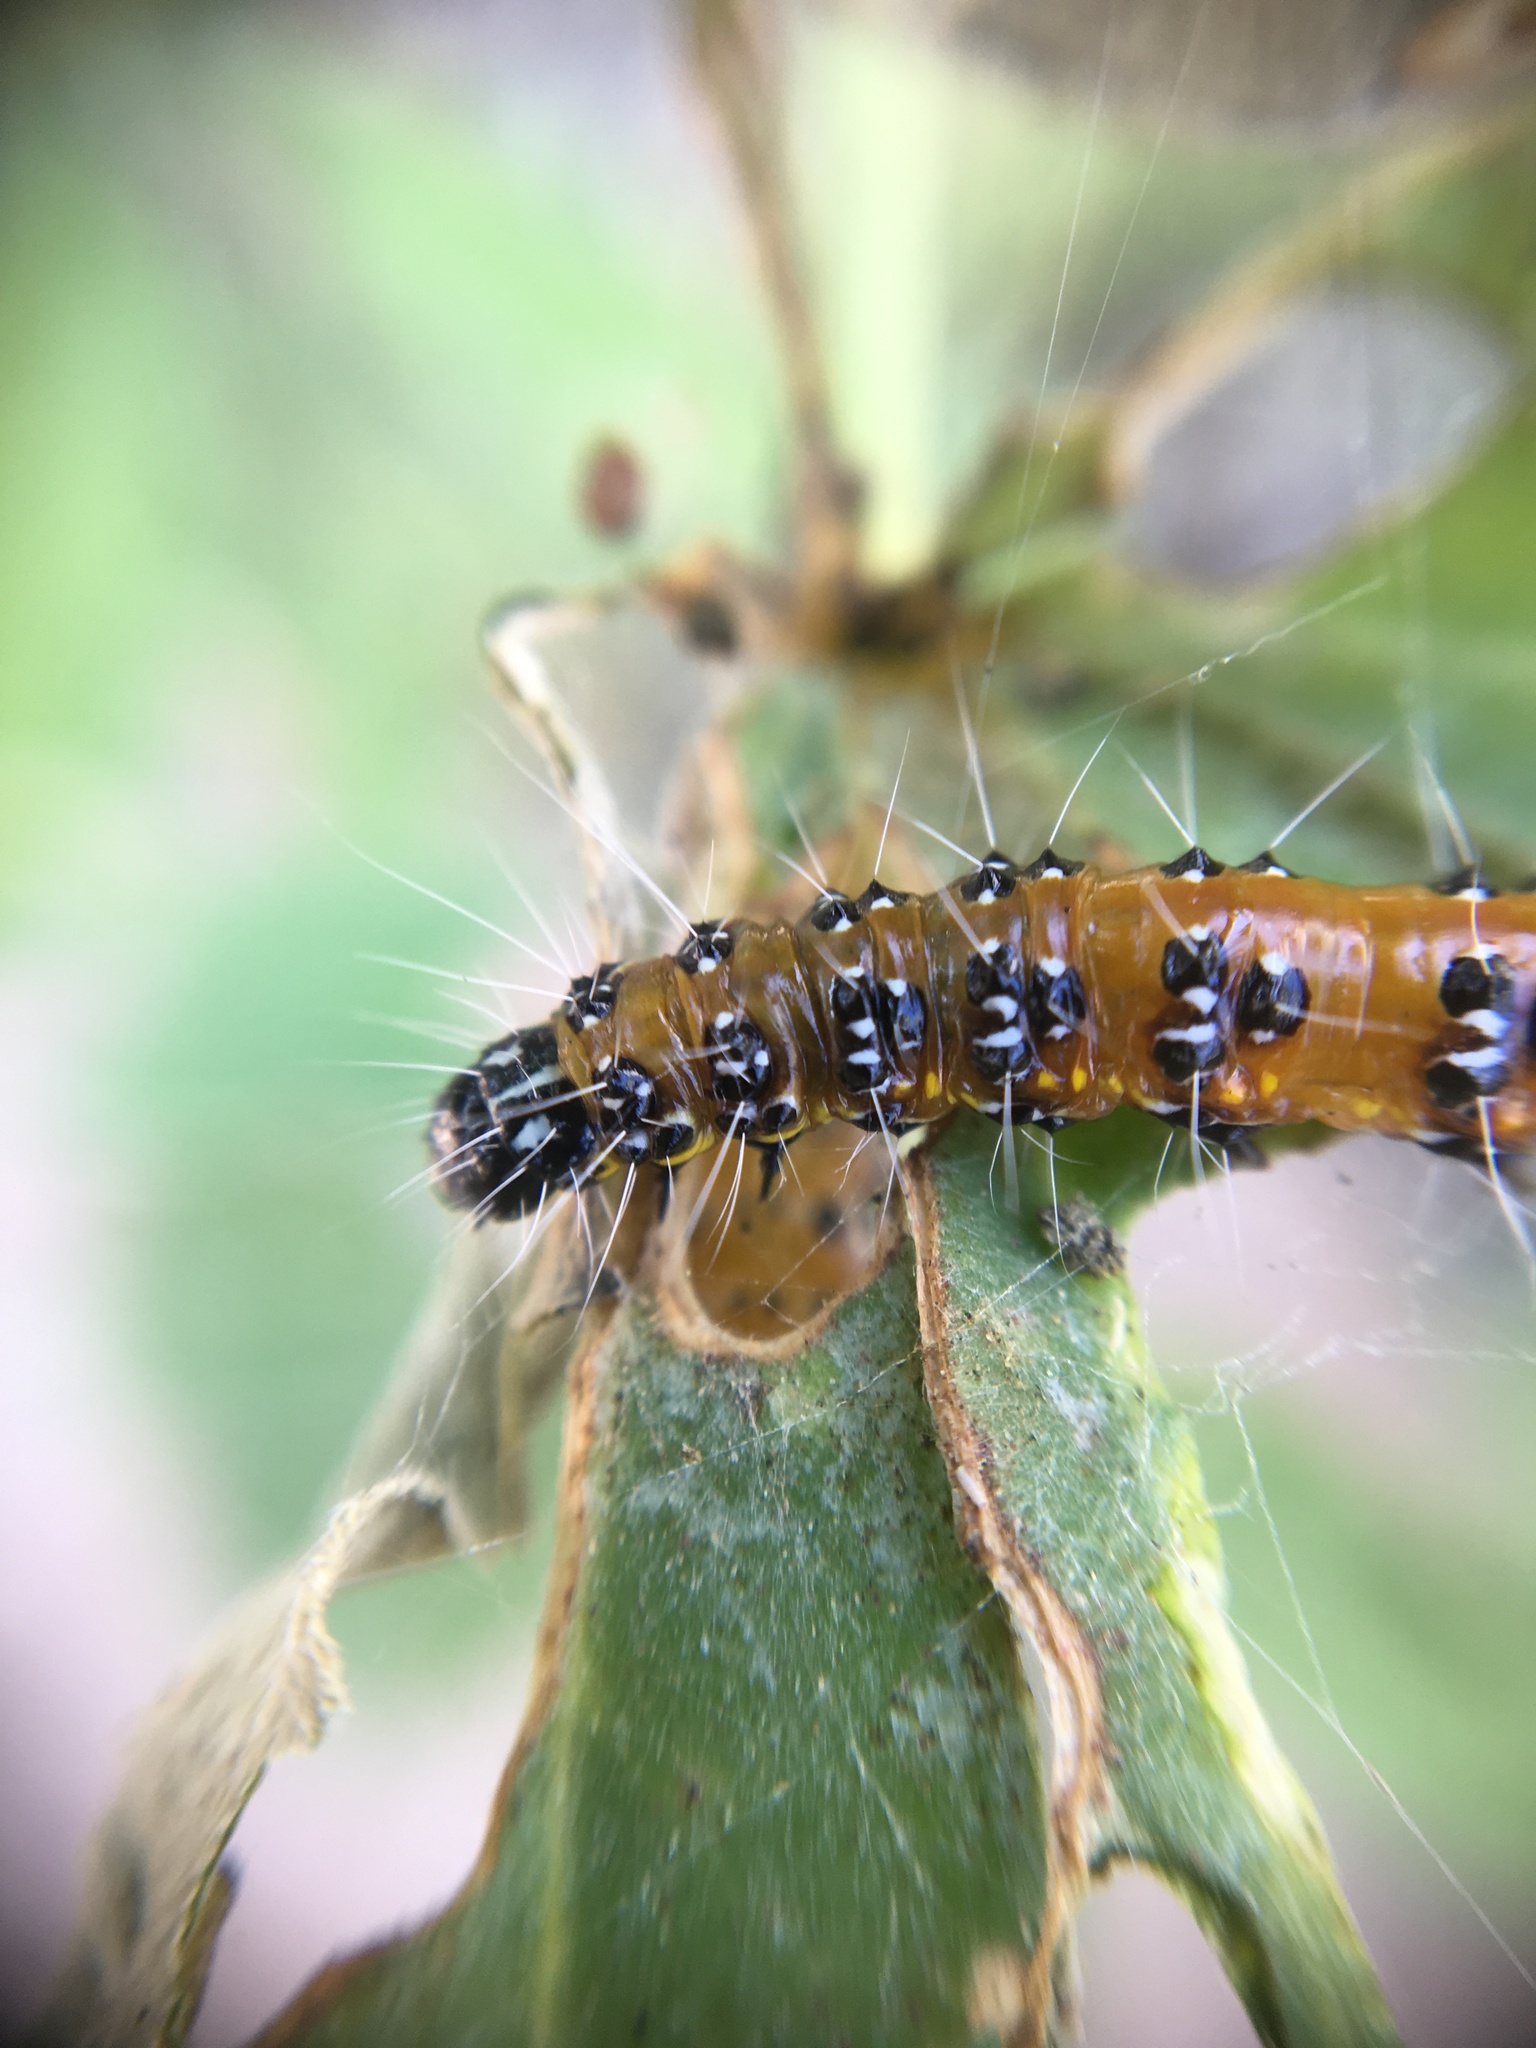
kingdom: Animalia
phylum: Arthropoda
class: Insecta
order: Lepidoptera
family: Crambidae
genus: Uresiphita
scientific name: Uresiphita reversalis
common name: Genista broom moth
